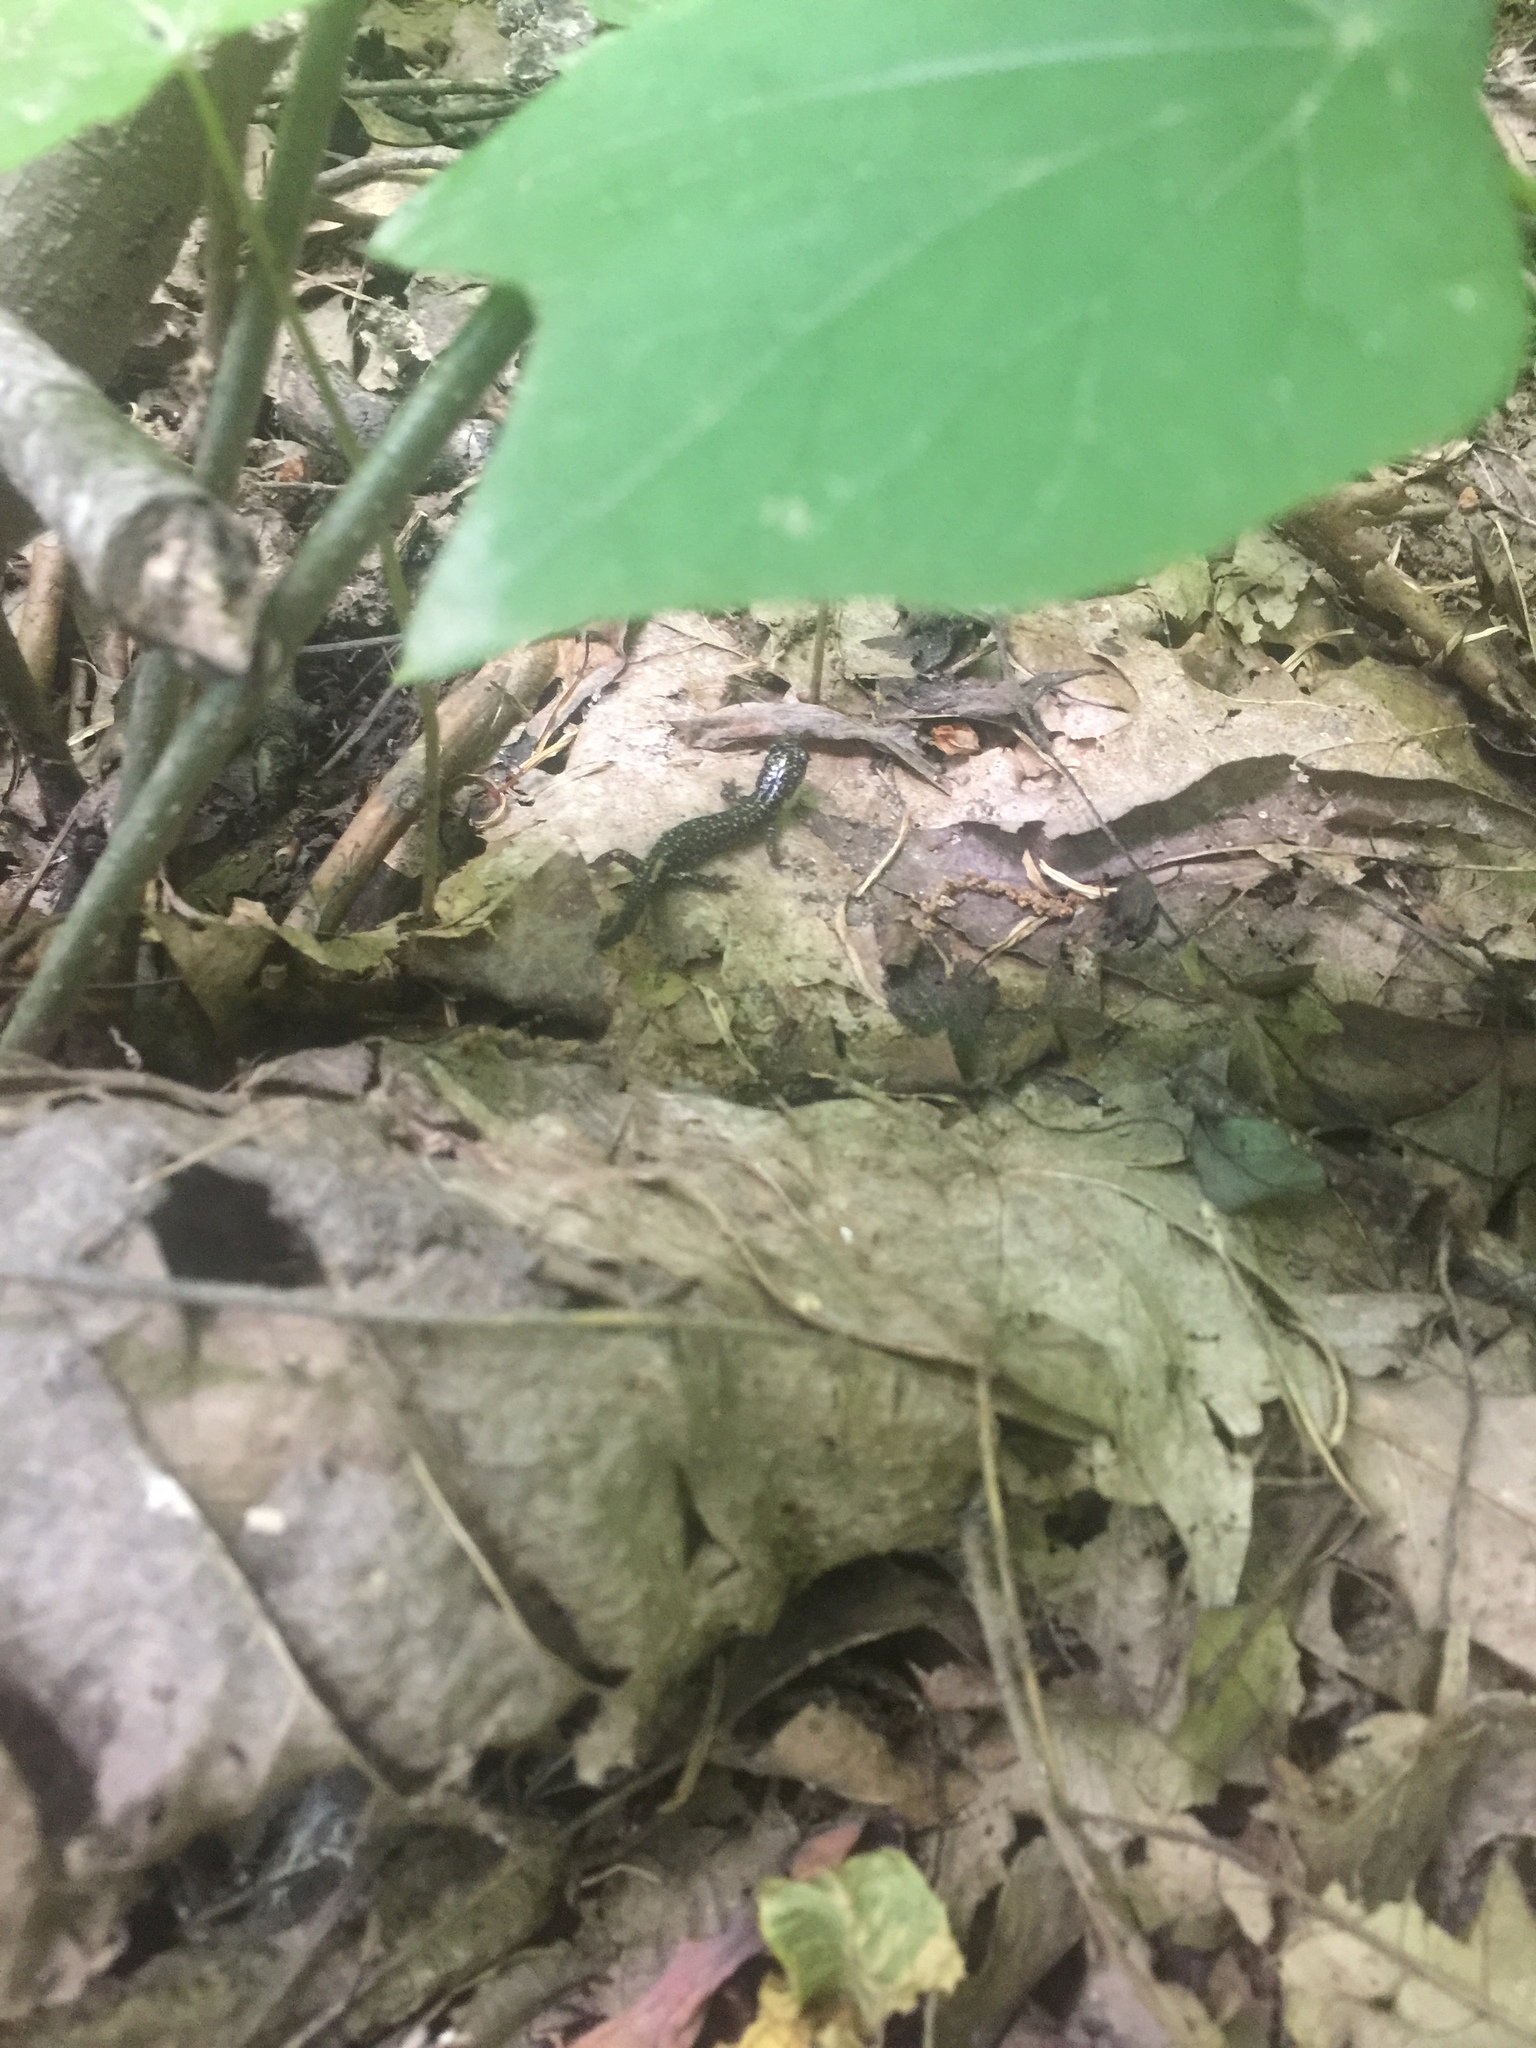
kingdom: Animalia
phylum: Chordata
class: Amphibia
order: Caudata
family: Plethodontidae
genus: Plethodon
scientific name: Plethodon glutinosus
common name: Northern slimy salamander
